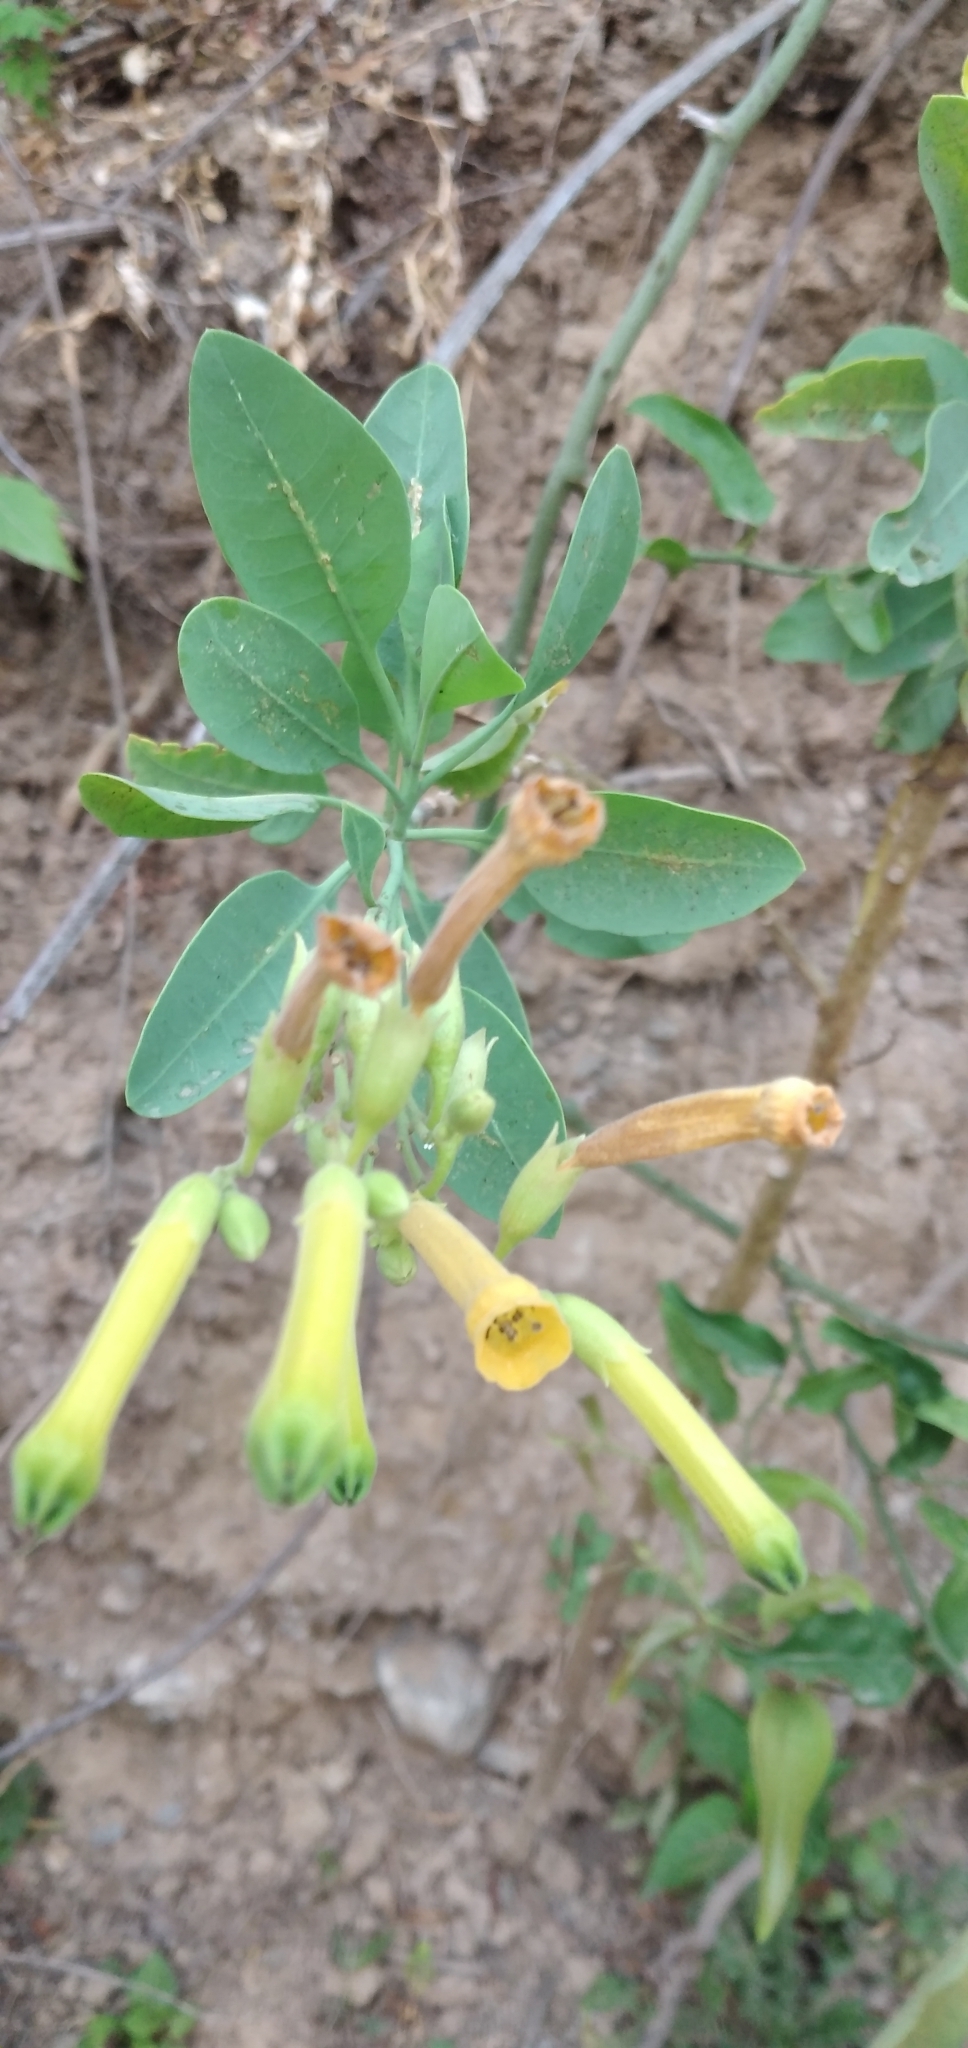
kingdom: Plantae
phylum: Tracheophyta
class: Magnoliopsida
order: Solanales
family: Solanaceae
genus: Nicotiana
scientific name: Nicotiana glauca
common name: Tree tobacco
